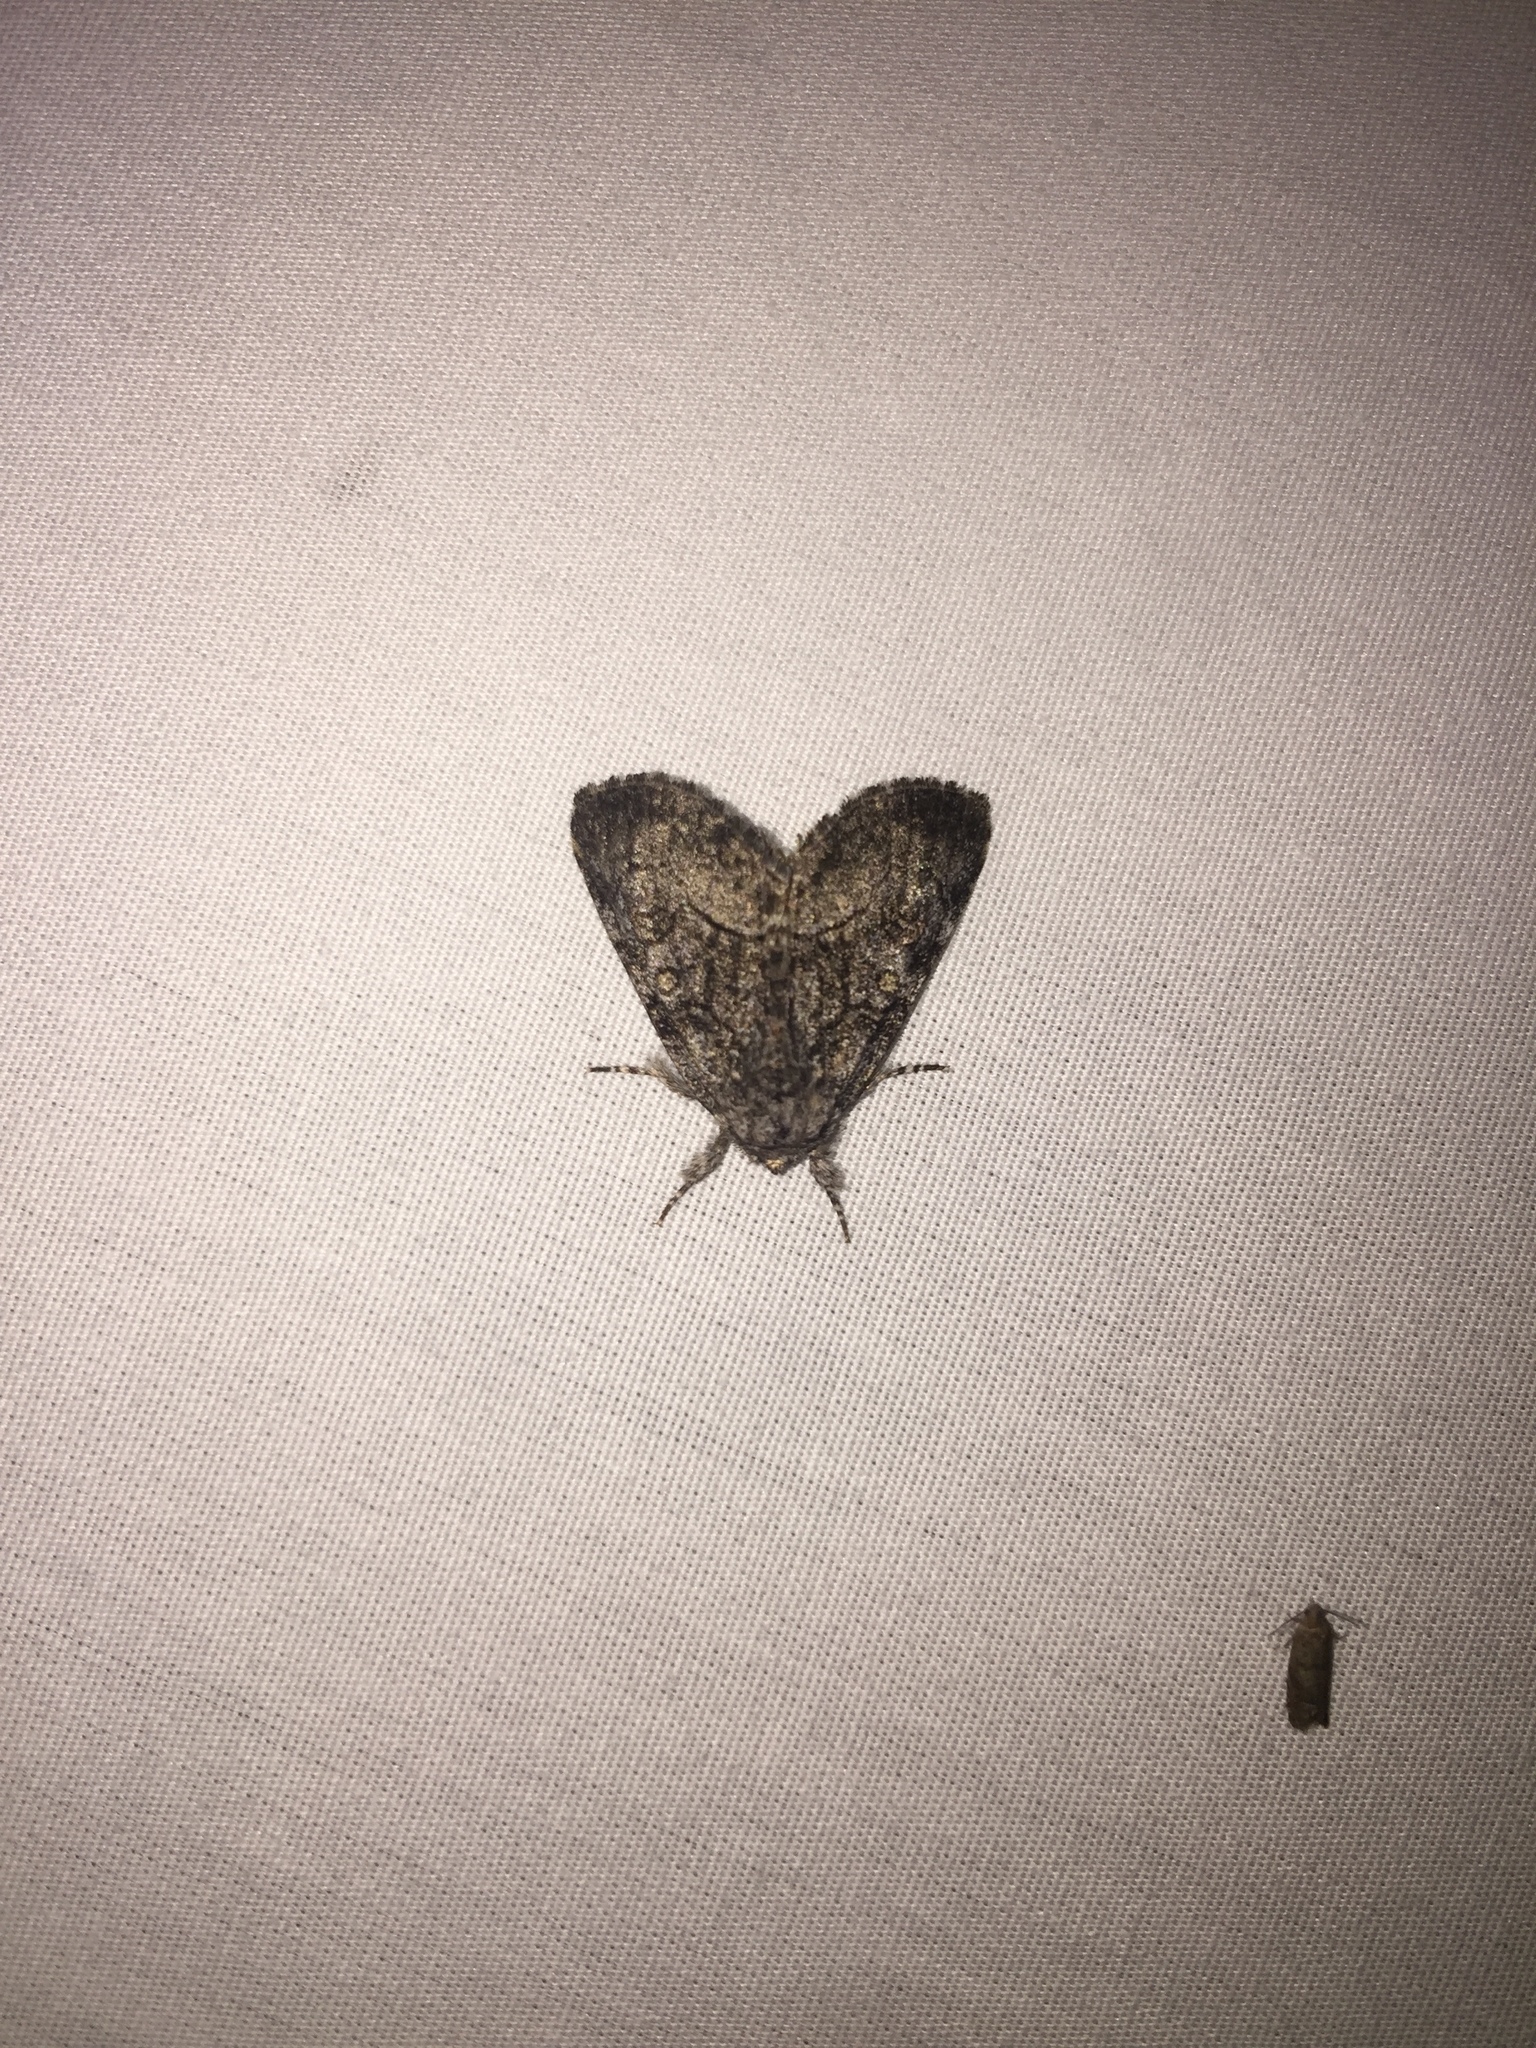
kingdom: Animalia
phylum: Arthropoda
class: Insecta
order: Lepidoptera
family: Noctuidae
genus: Raphia
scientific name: Raphia frater
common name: Brother
